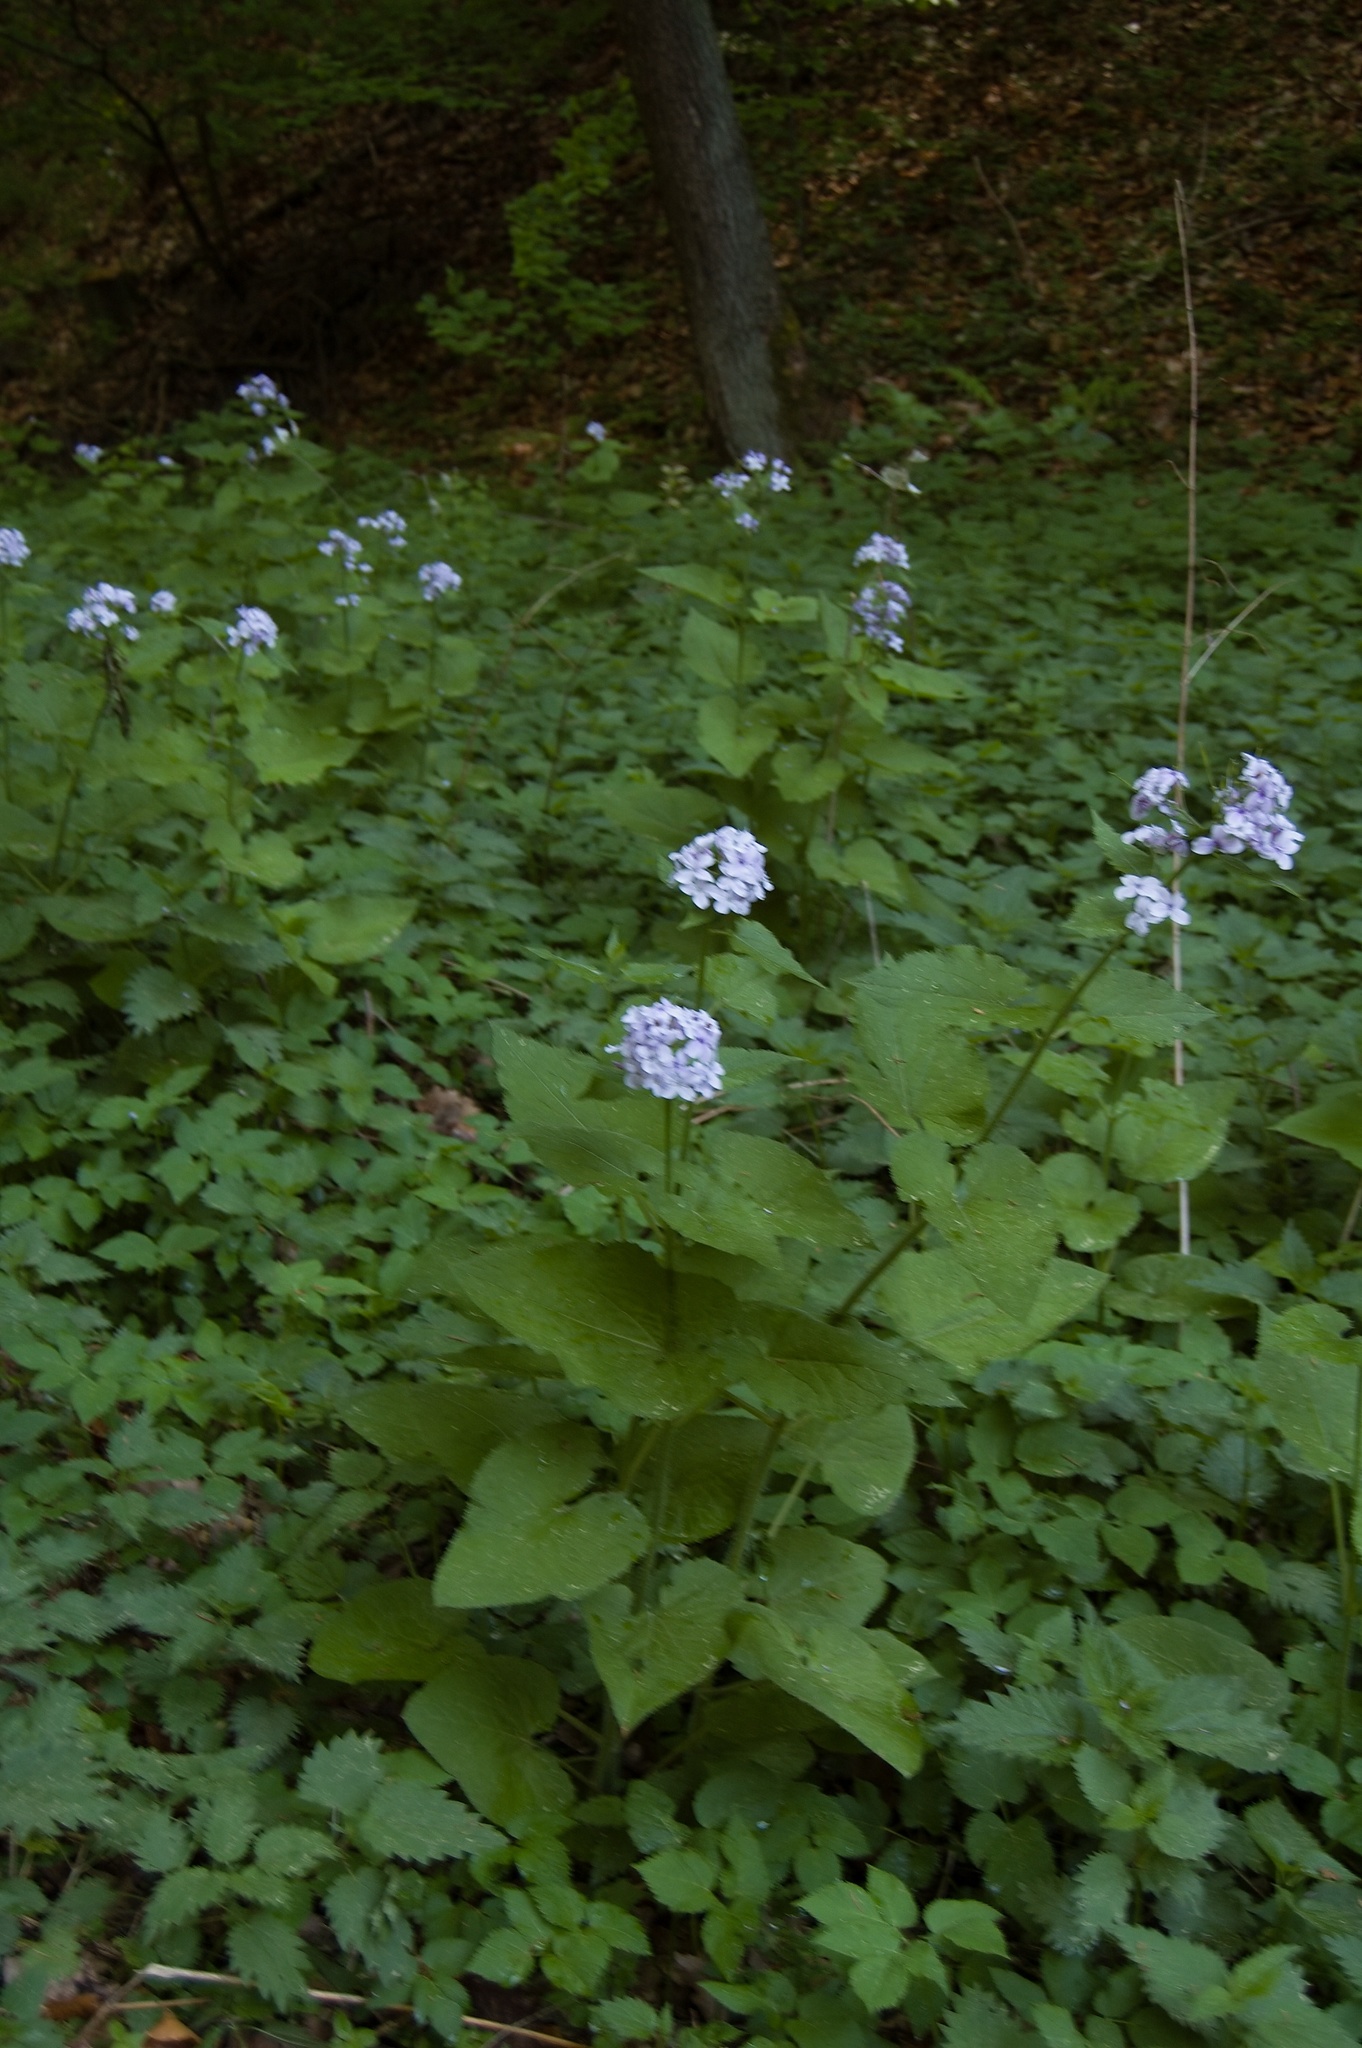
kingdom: Plantae
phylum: Tracheophyta
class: Magnoliopsida
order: Brassicales
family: Brassicaceae
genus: Lunaria
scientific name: Lunaria rediviva
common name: Perennial honesty
